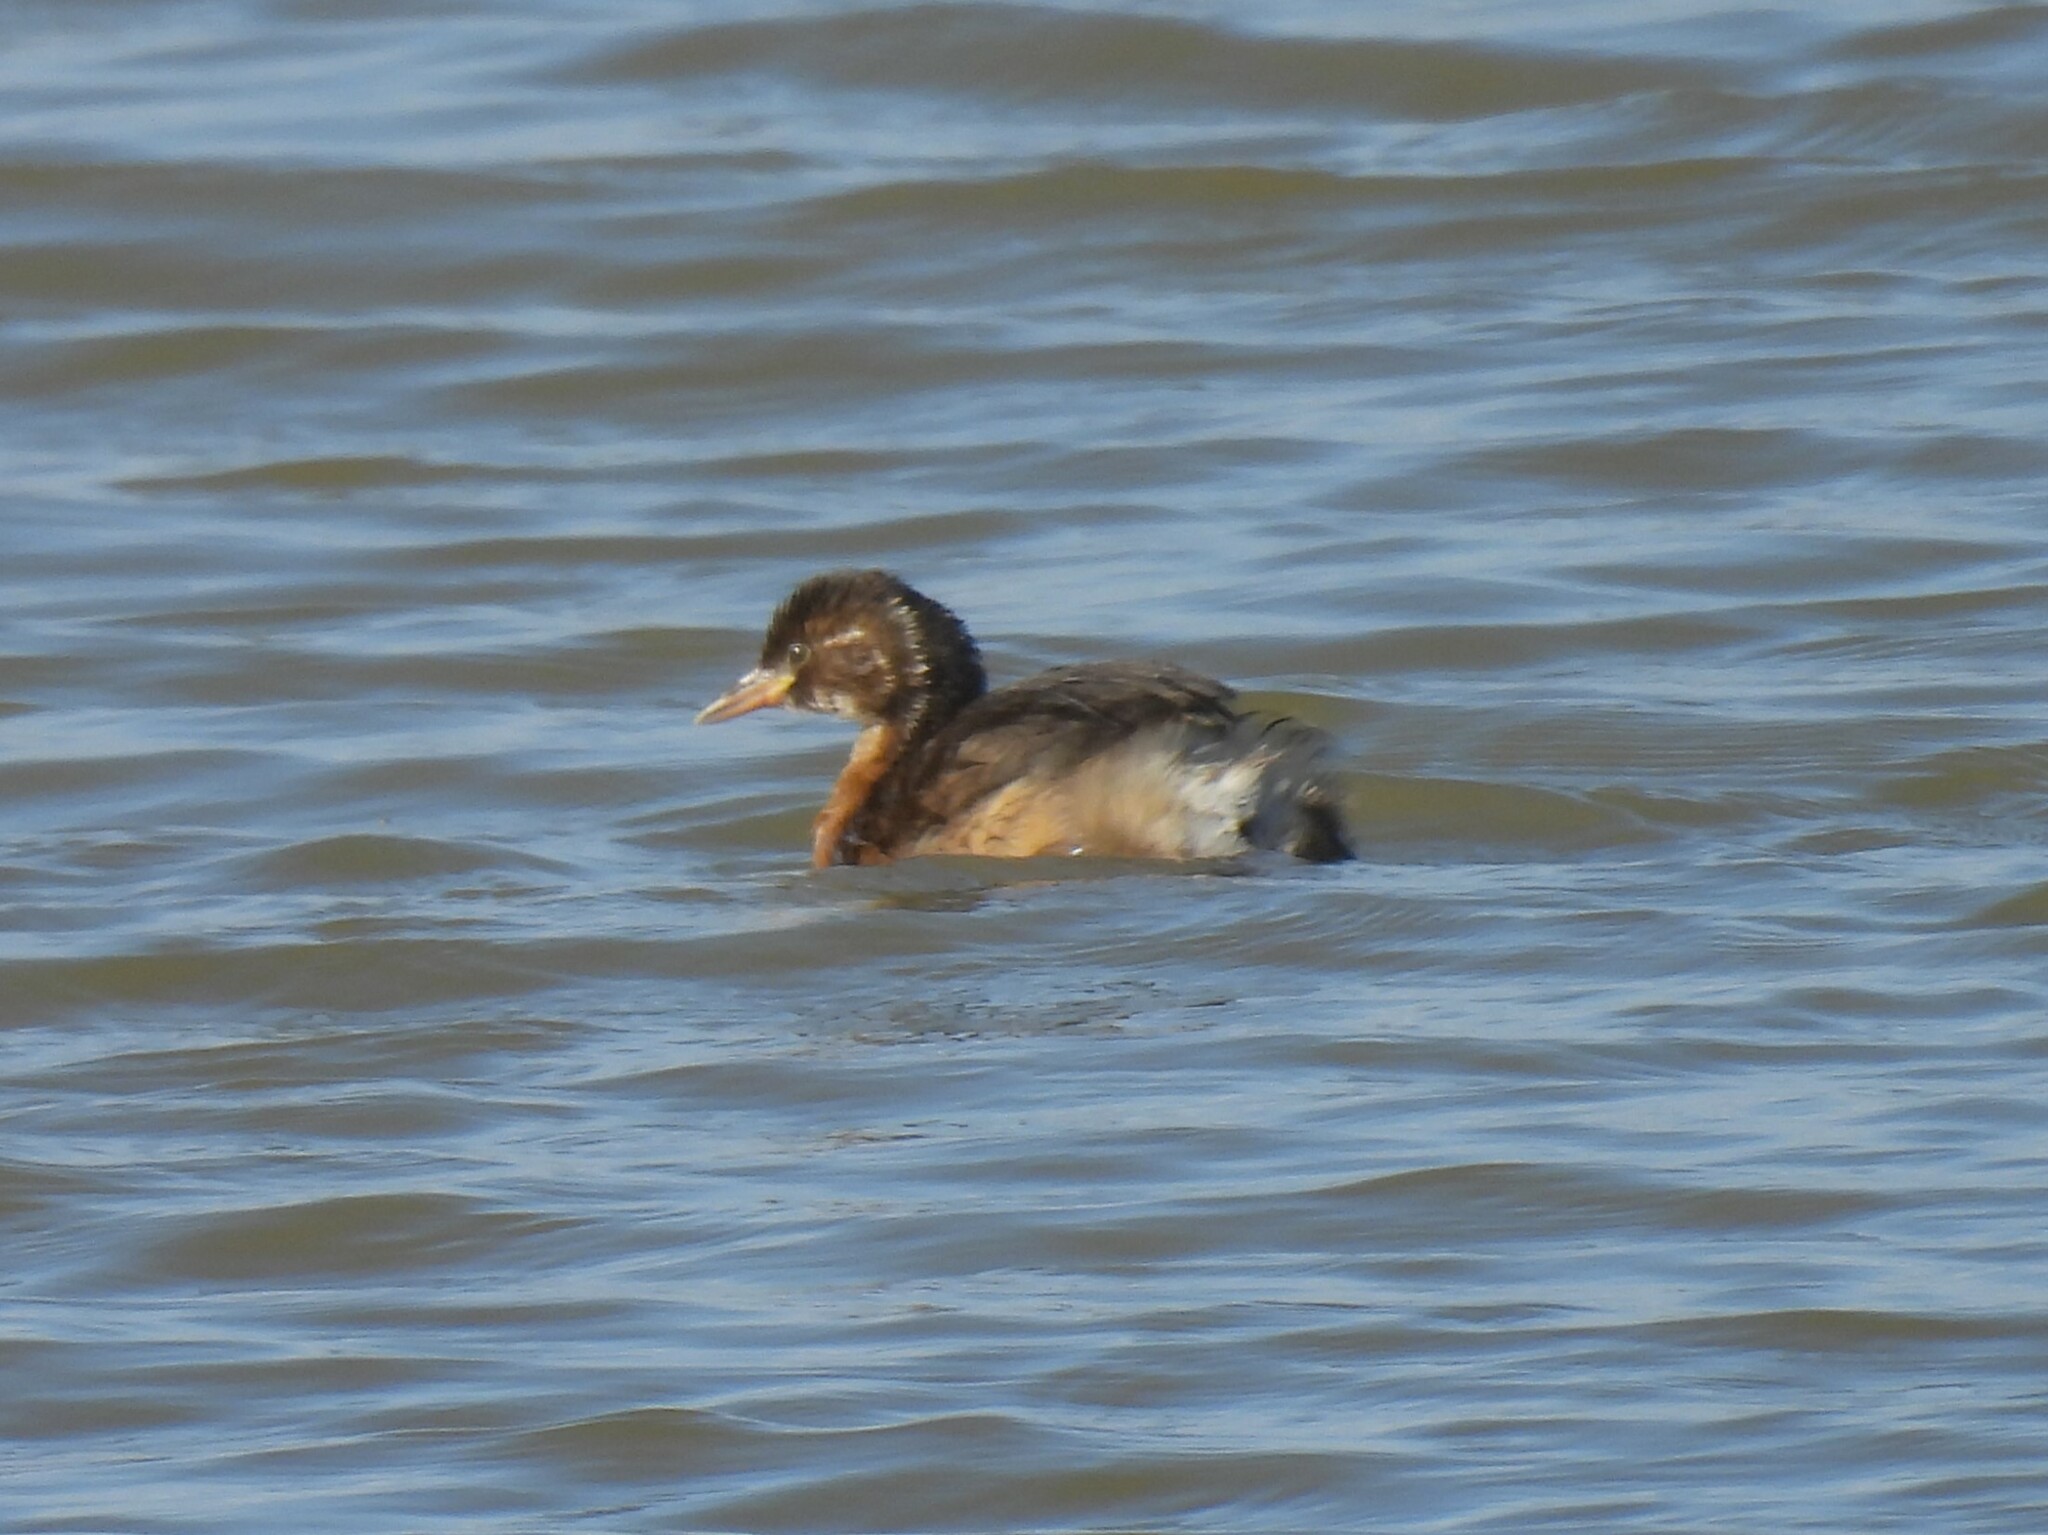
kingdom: Animalia
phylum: Chordata
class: Aves
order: Podicipediformes
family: Podicipedidae
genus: Tachybaptus
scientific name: Tachybaptus ruficollis
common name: Little grebe
